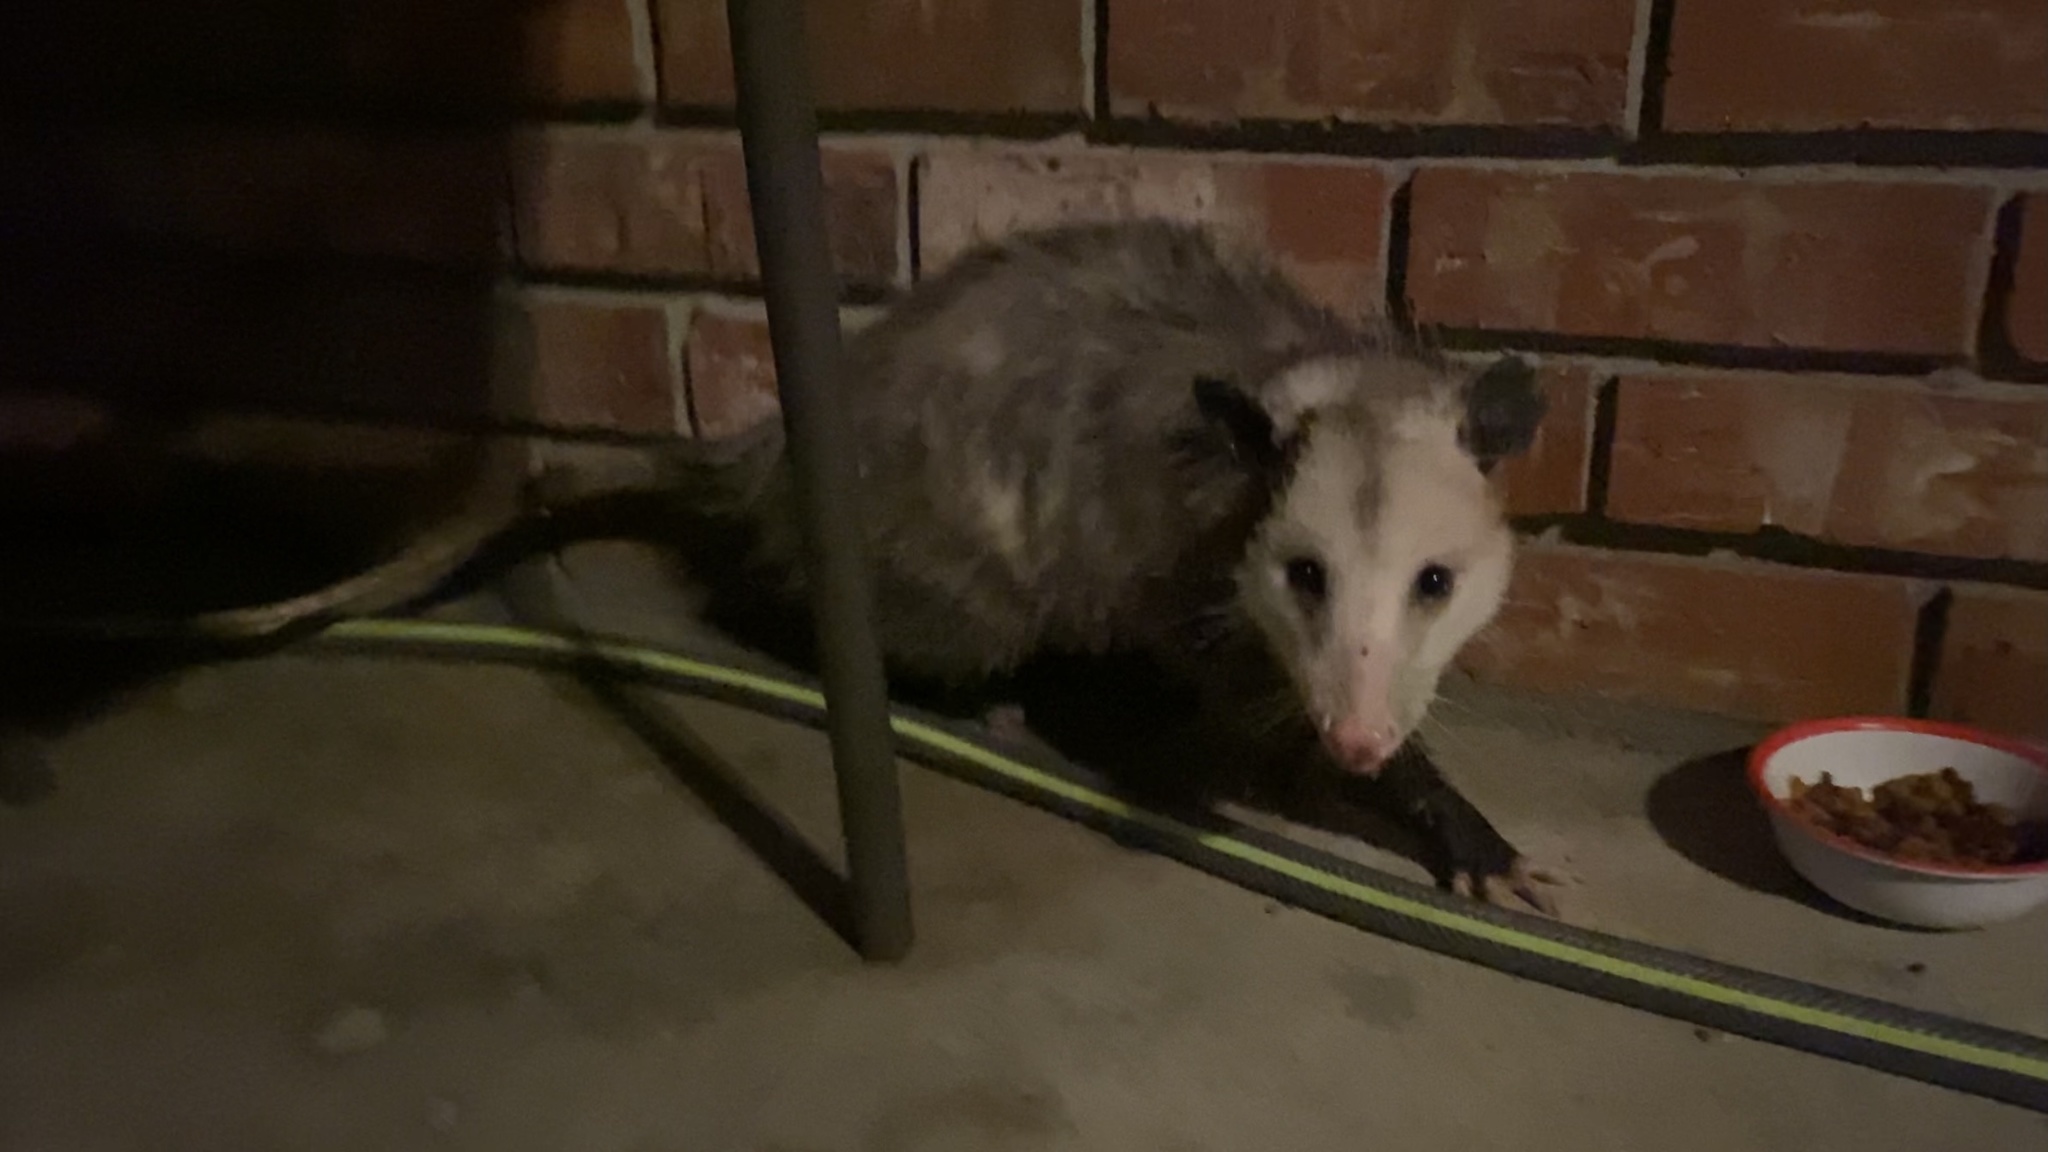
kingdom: Animalia
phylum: Chordata
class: Mammalia
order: Didelphimorphia
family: Didelphidae
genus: Didelphis
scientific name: Didelphis virginiana
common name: Virginia opossum
